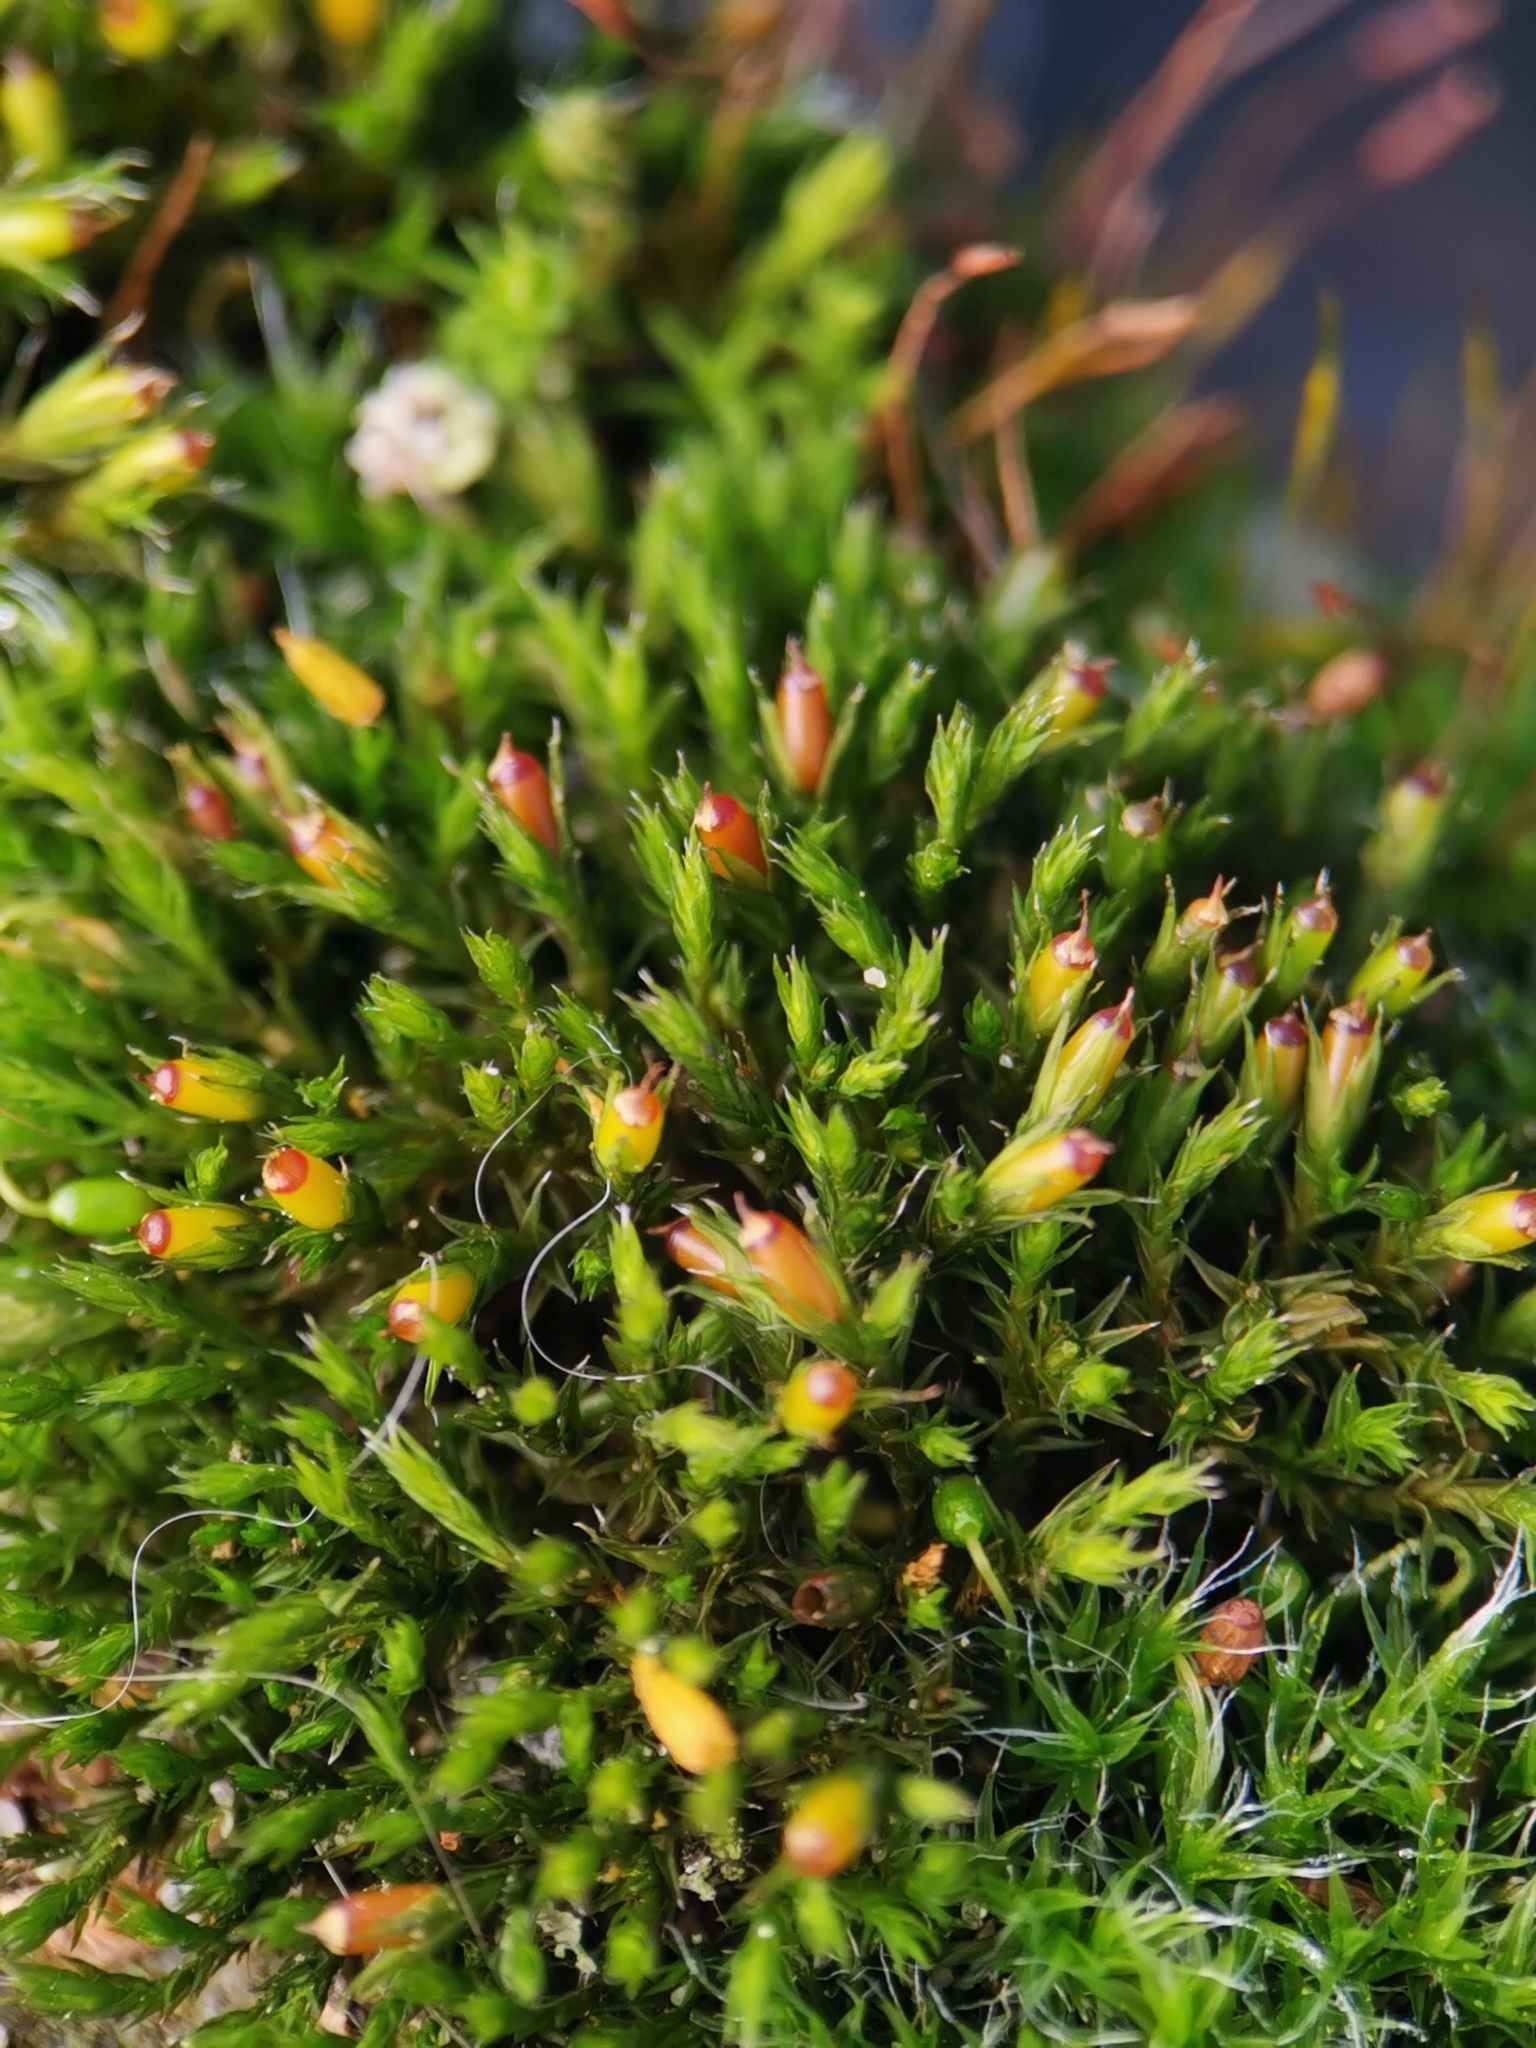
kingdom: Plantae
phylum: Bryophyta
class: Bryopsida
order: Grimmiales
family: Grimmiaceae
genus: Schistidium
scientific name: Schistidium crassipilum
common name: Thickpoint bloom moss
